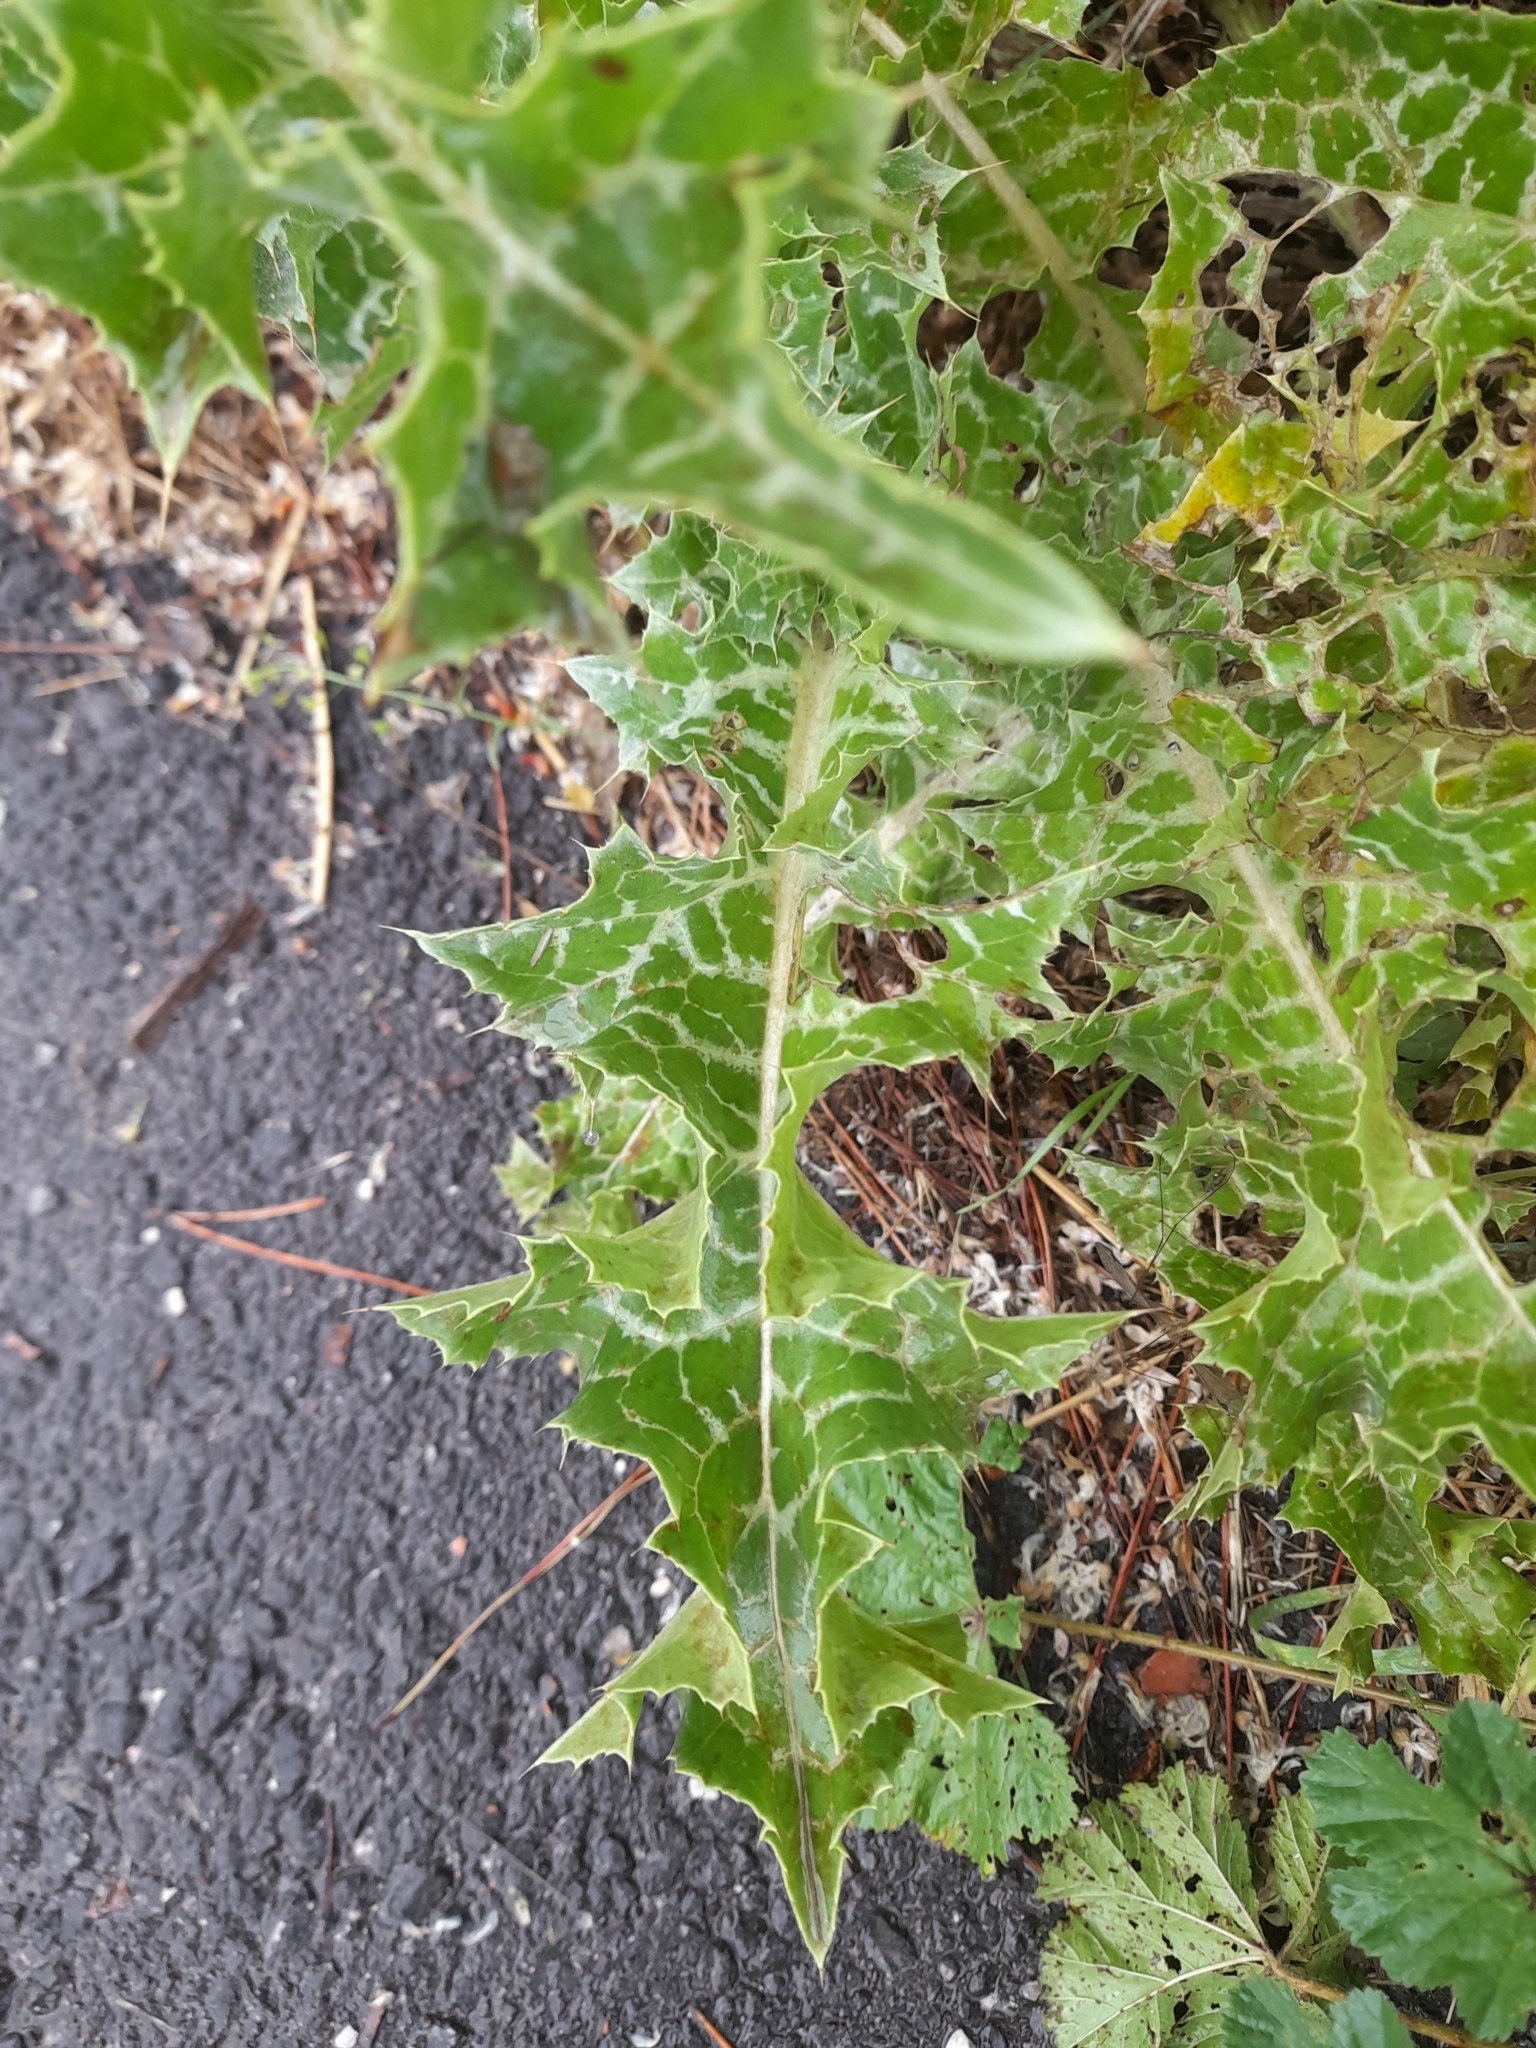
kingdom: Plantae
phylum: Tracheophyta
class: Magnoliopsida
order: Asterales
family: Asteraceae
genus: Silybum
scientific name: Silybum marianum
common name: Milk thistle
